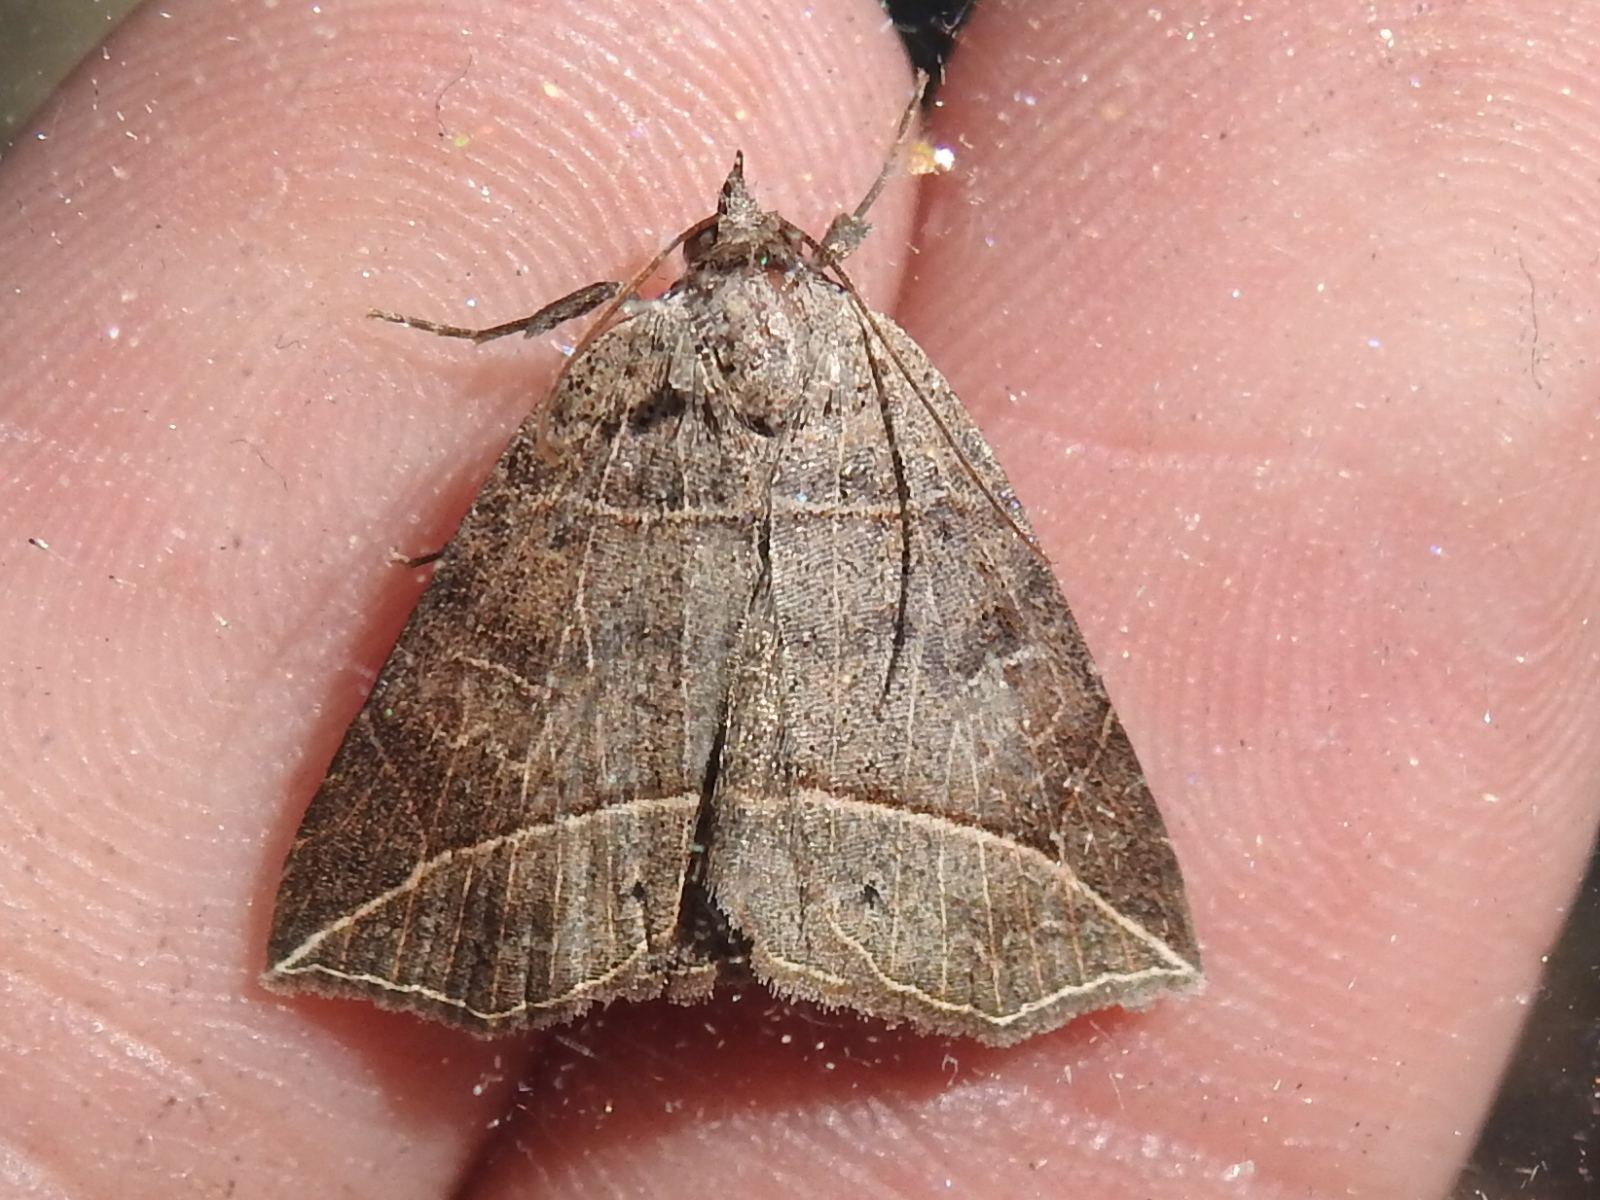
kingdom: Animalia
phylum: Arthropoda
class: Insecta
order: Lepidoptera
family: Erebidae
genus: Isogona
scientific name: Isogona tenuis
